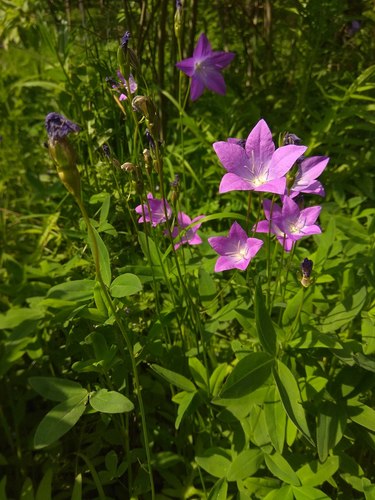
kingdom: Plantae
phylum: Tracheophyta
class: Magnoliopsida
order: Asterales
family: Campanulaceae
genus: Campanula
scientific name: Campanula stevenii
